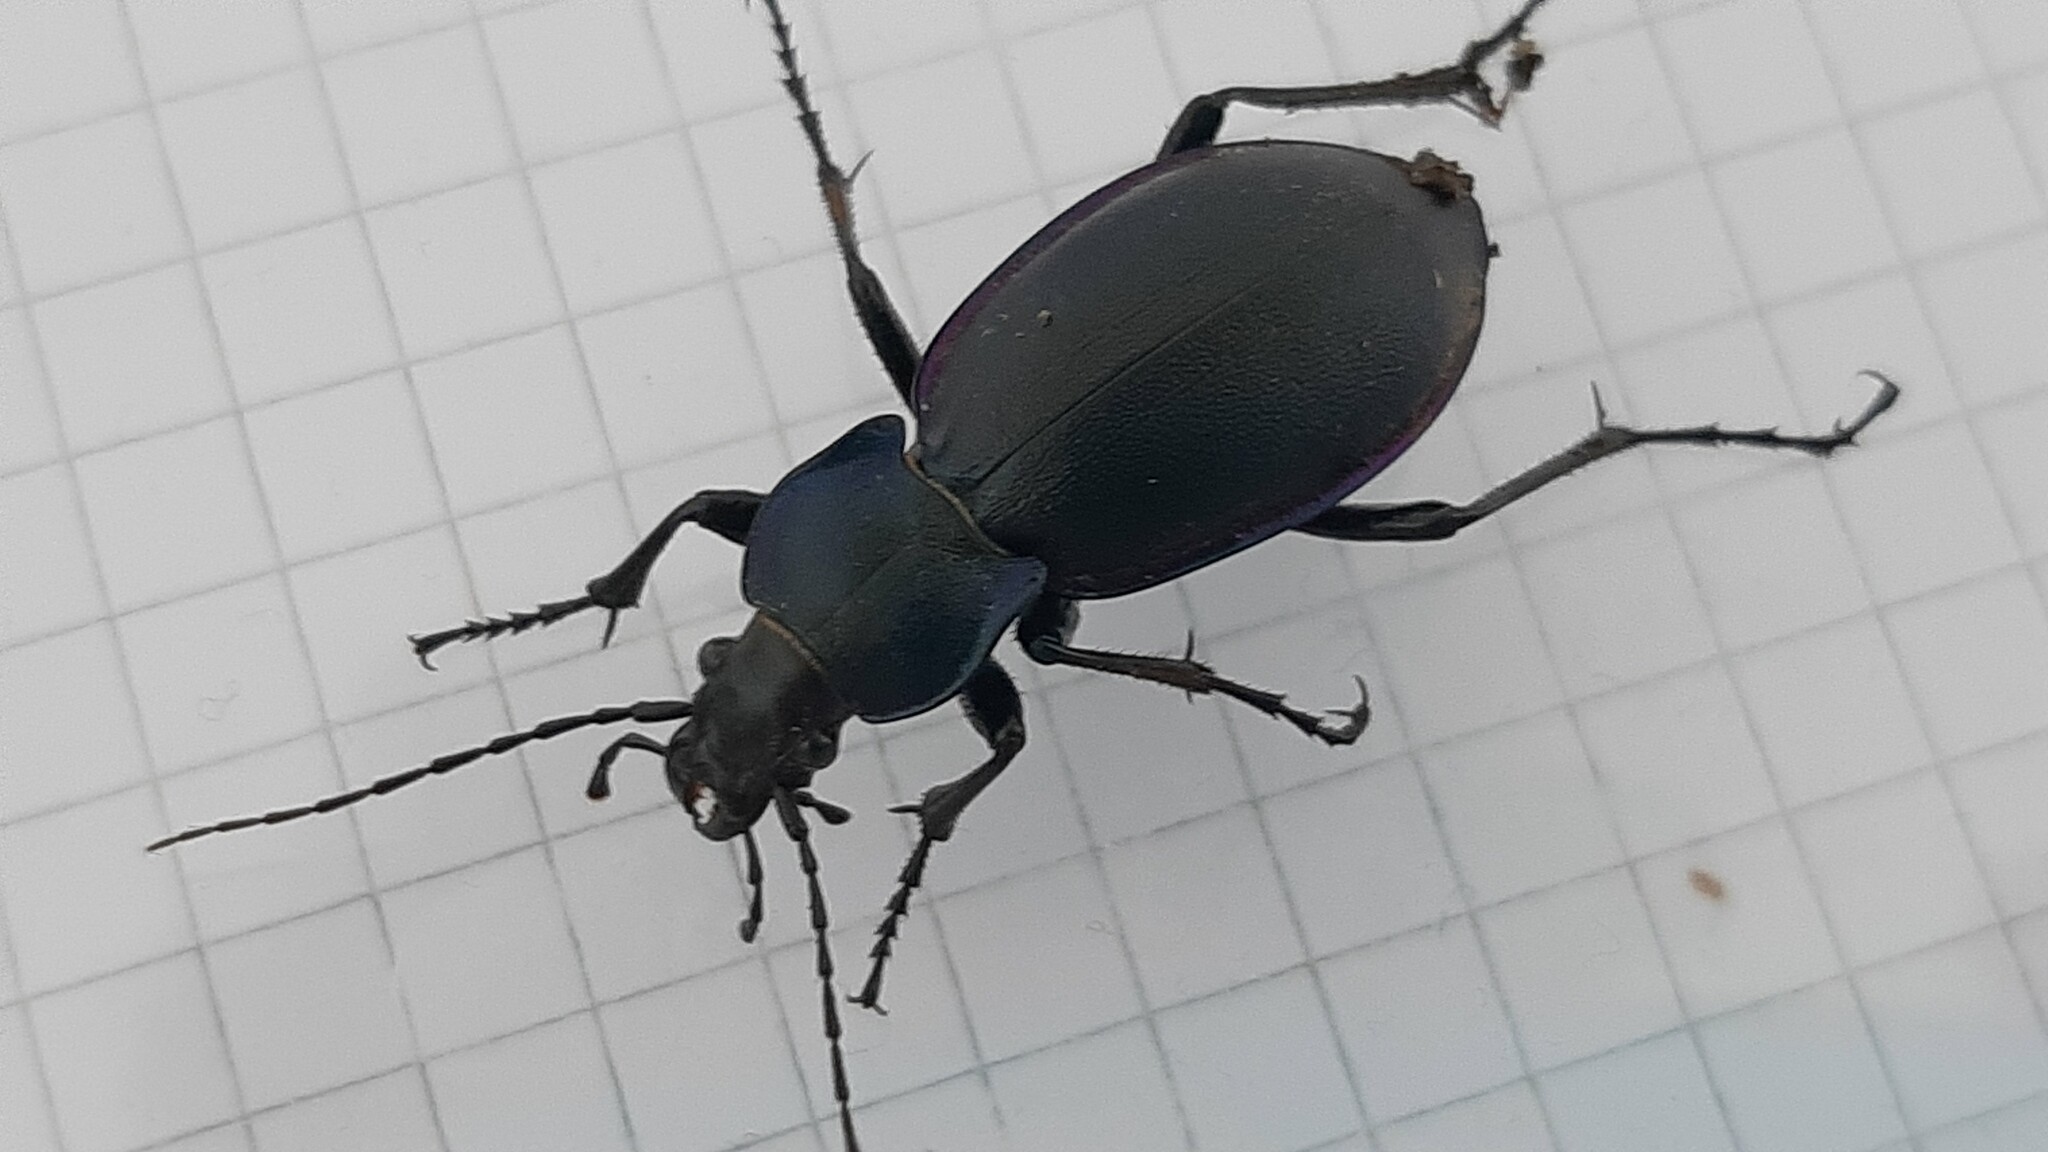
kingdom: Animalia
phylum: Arthropoda
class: Insecta
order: Coleoptera
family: Carabidae
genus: Carabus
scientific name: Carabus germarii
